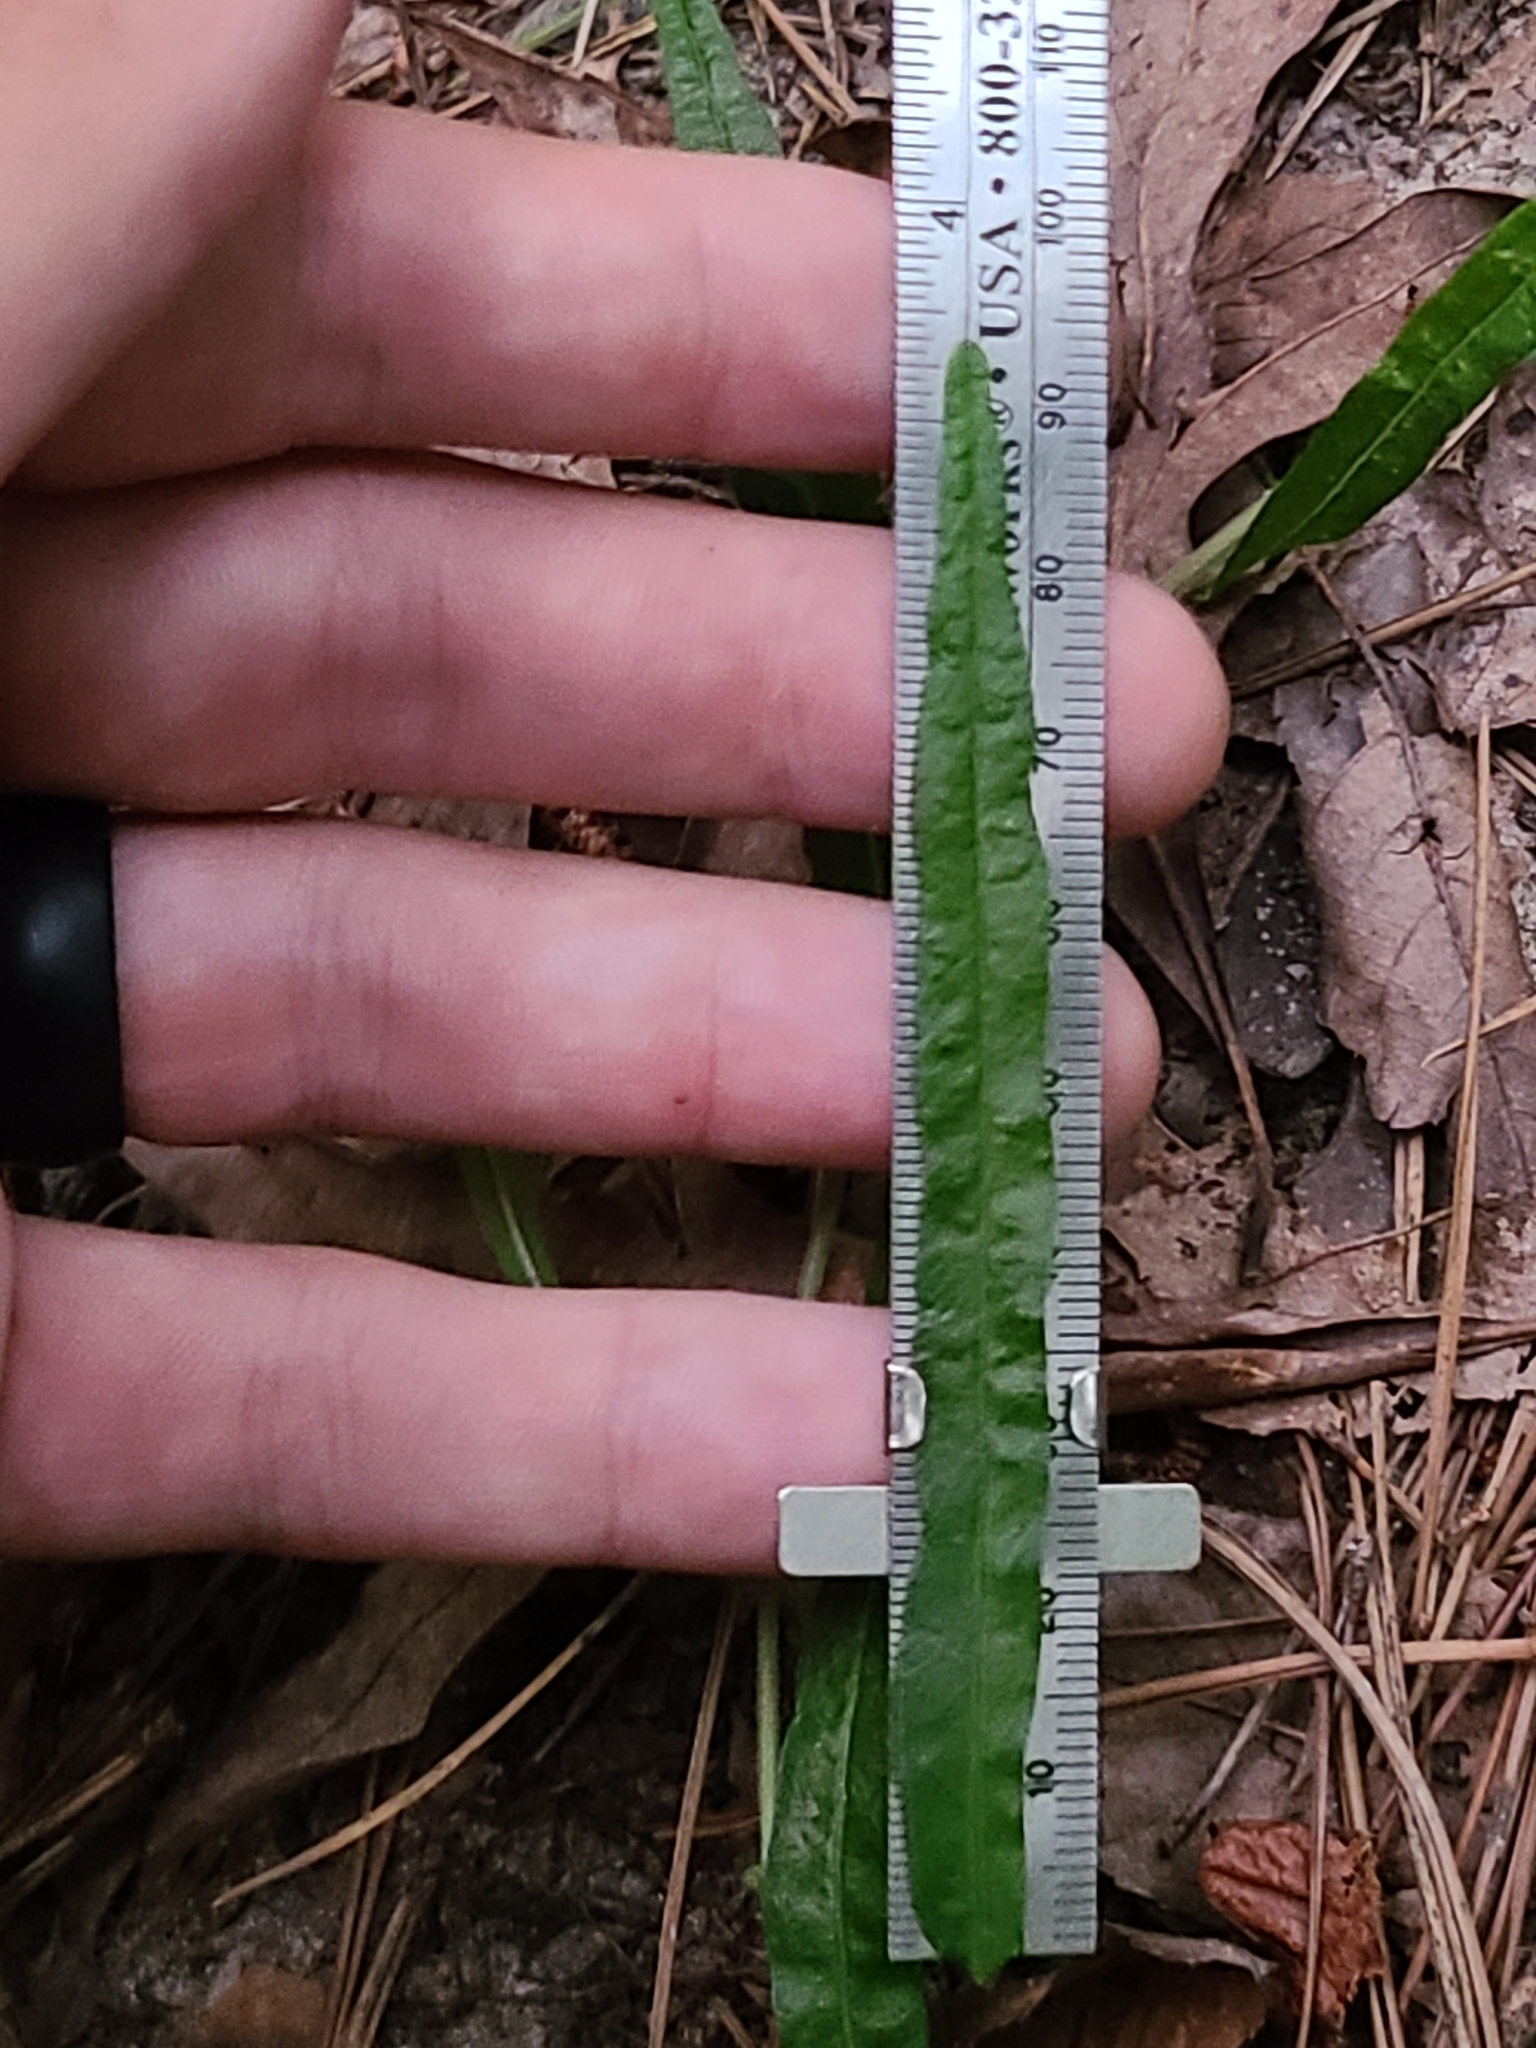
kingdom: Plantae
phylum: Tracheophyta
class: Magnoliopsida
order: Malpighiales
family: Euphorbiaceae
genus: Tragia
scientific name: Tragia urens
